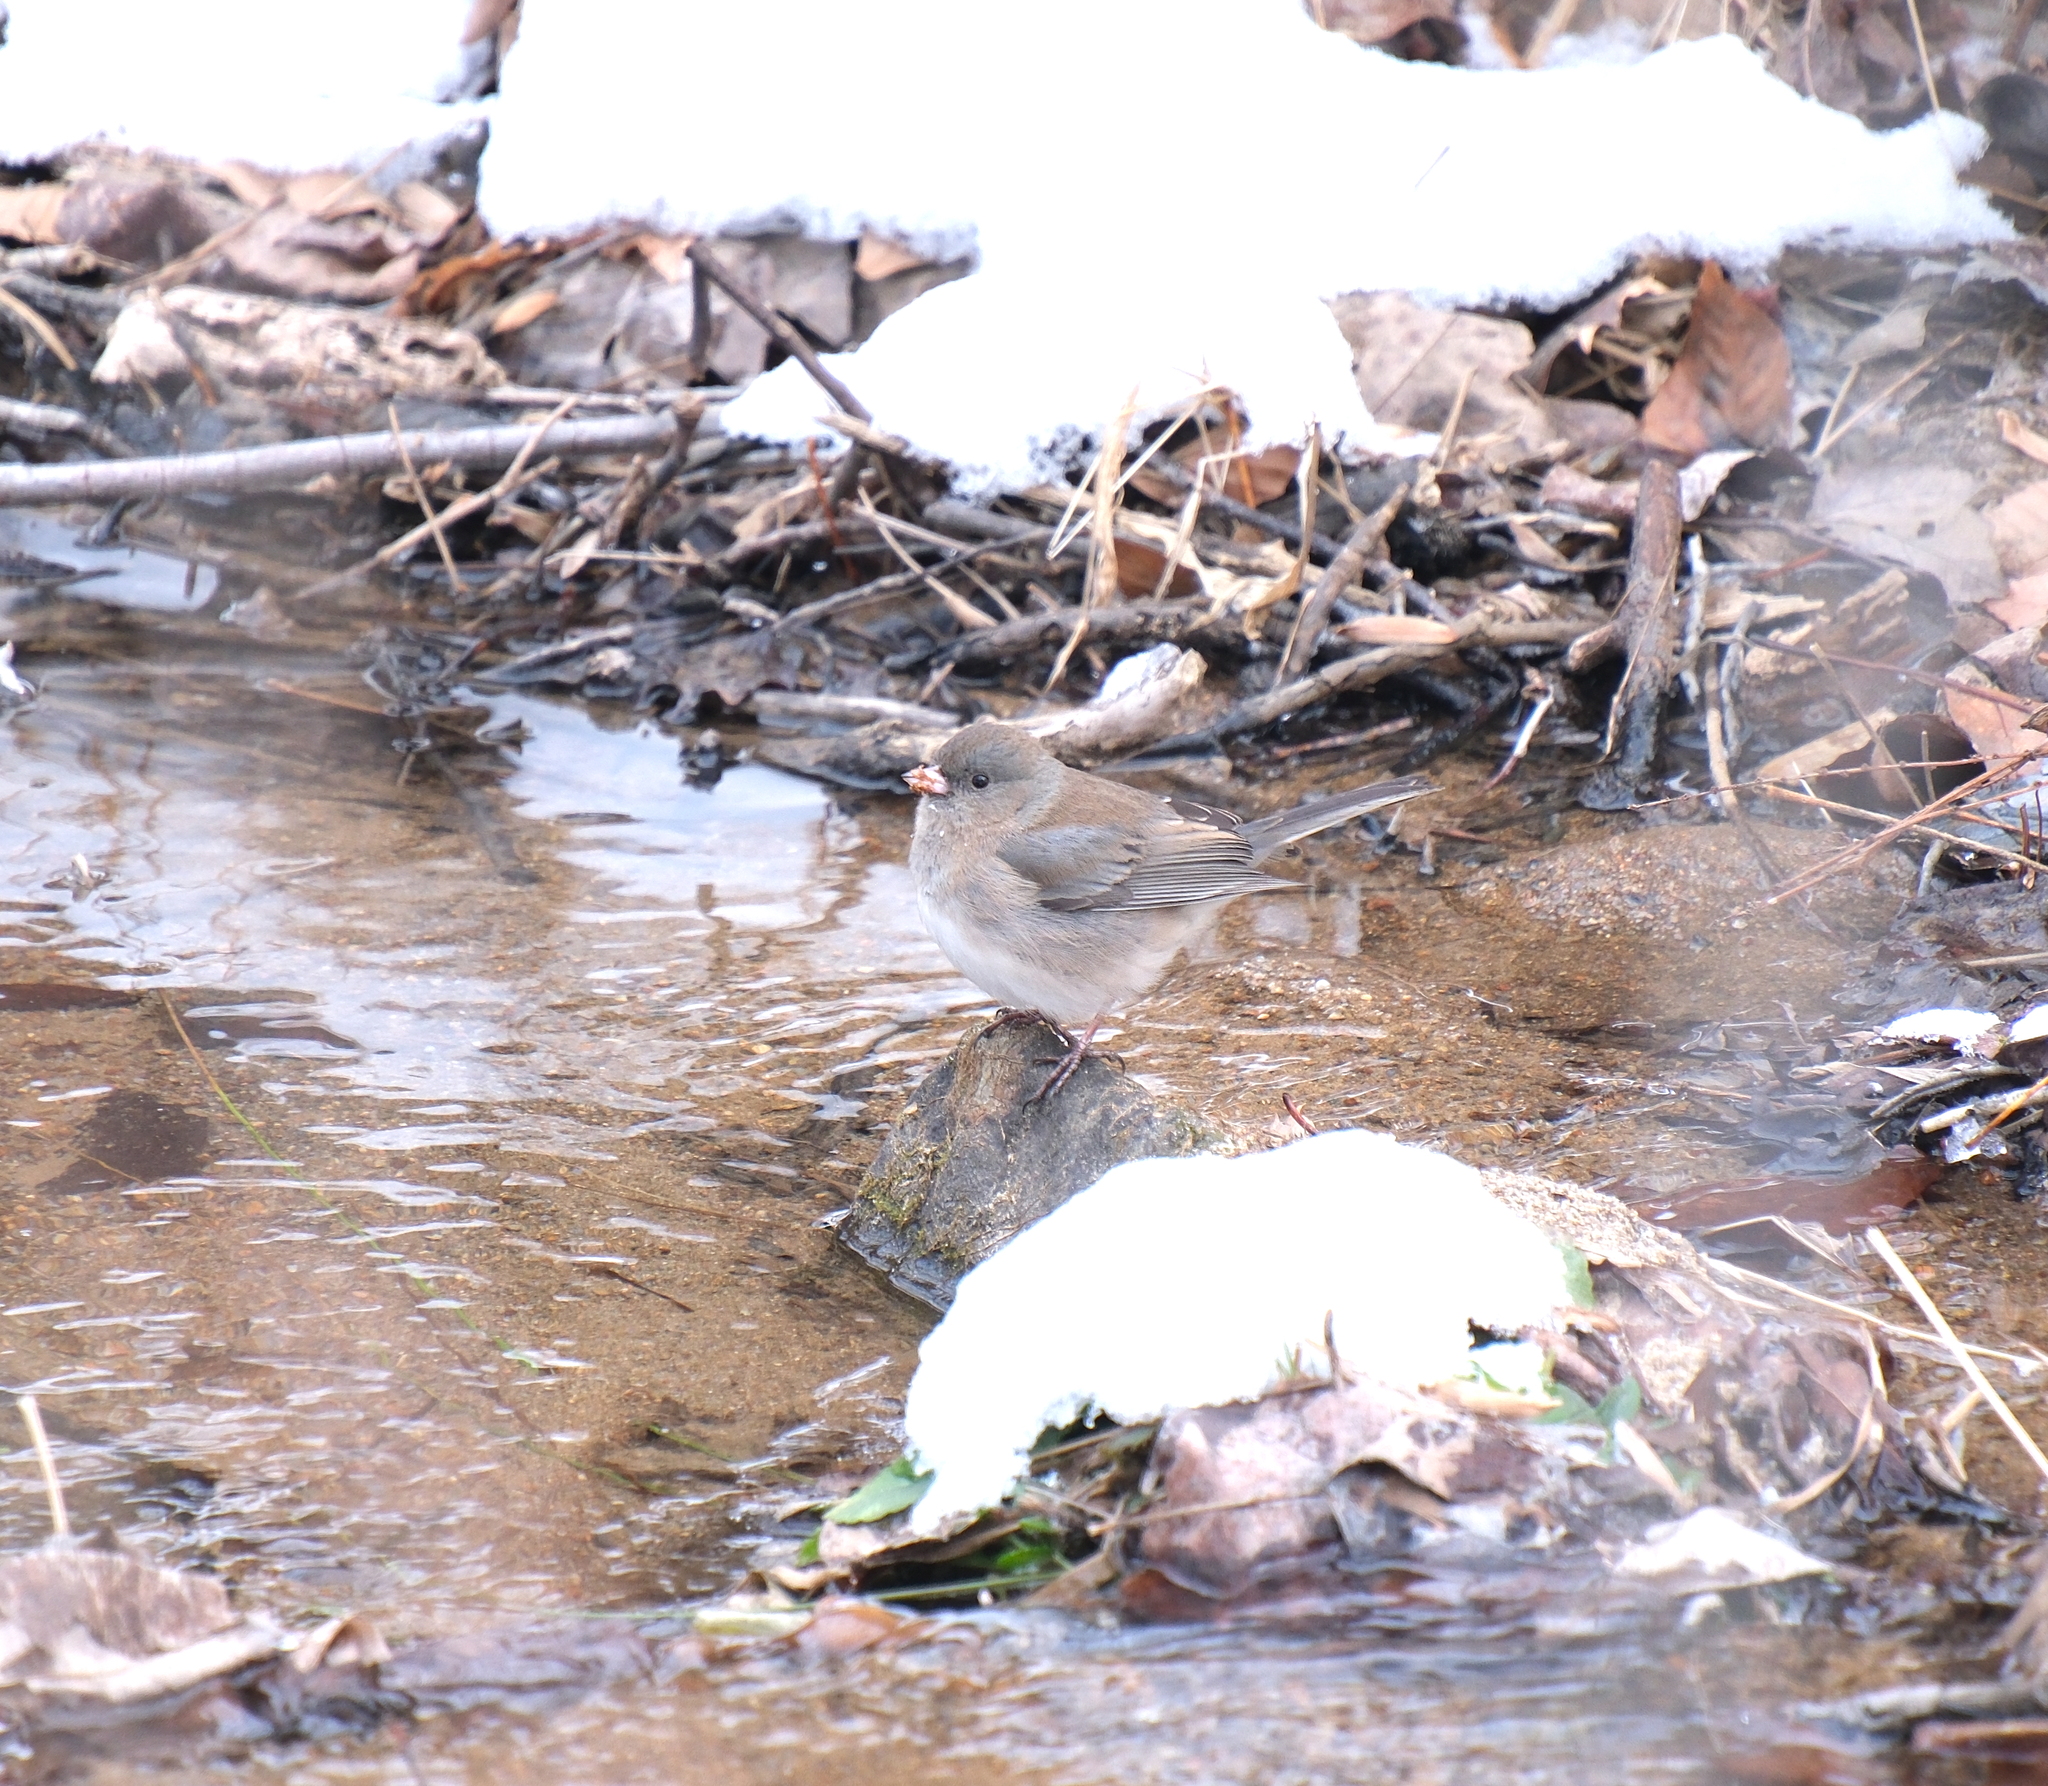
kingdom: Animalia
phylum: Chordata
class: Aves
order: Passeriformes
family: Passerellidae
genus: Junco
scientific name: Junco hyemalis
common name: Dark-eyed junco
